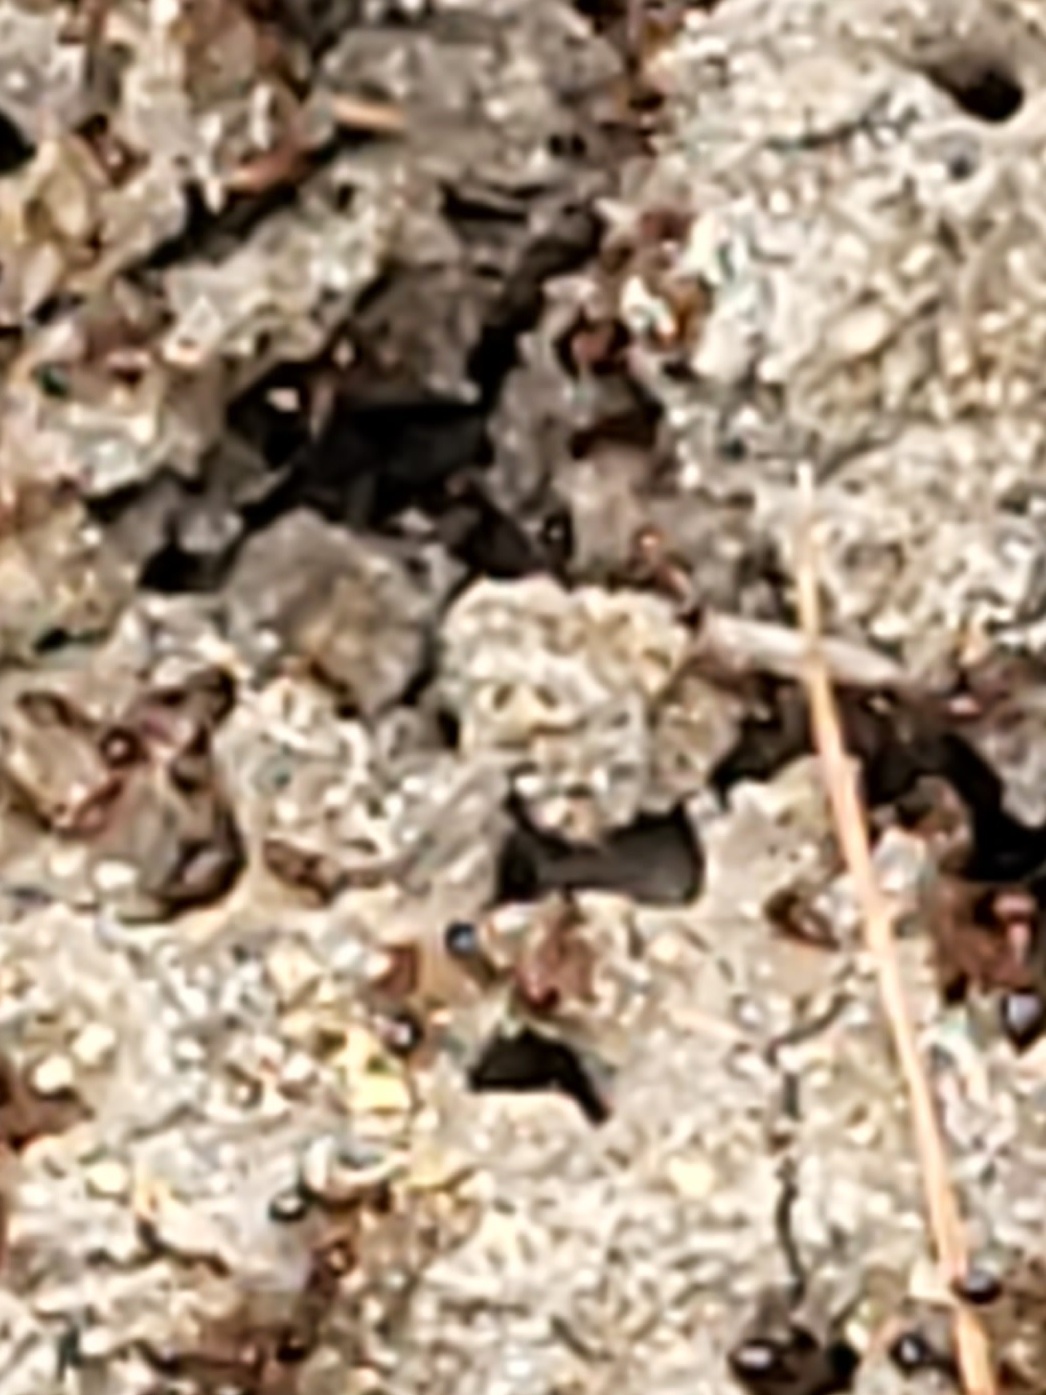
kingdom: Animalia
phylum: Arthropoda
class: Insecta
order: Hymenoptera
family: Formicidae
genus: Solenopsis
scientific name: Solenopsis invicta
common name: Red imported fire ant
